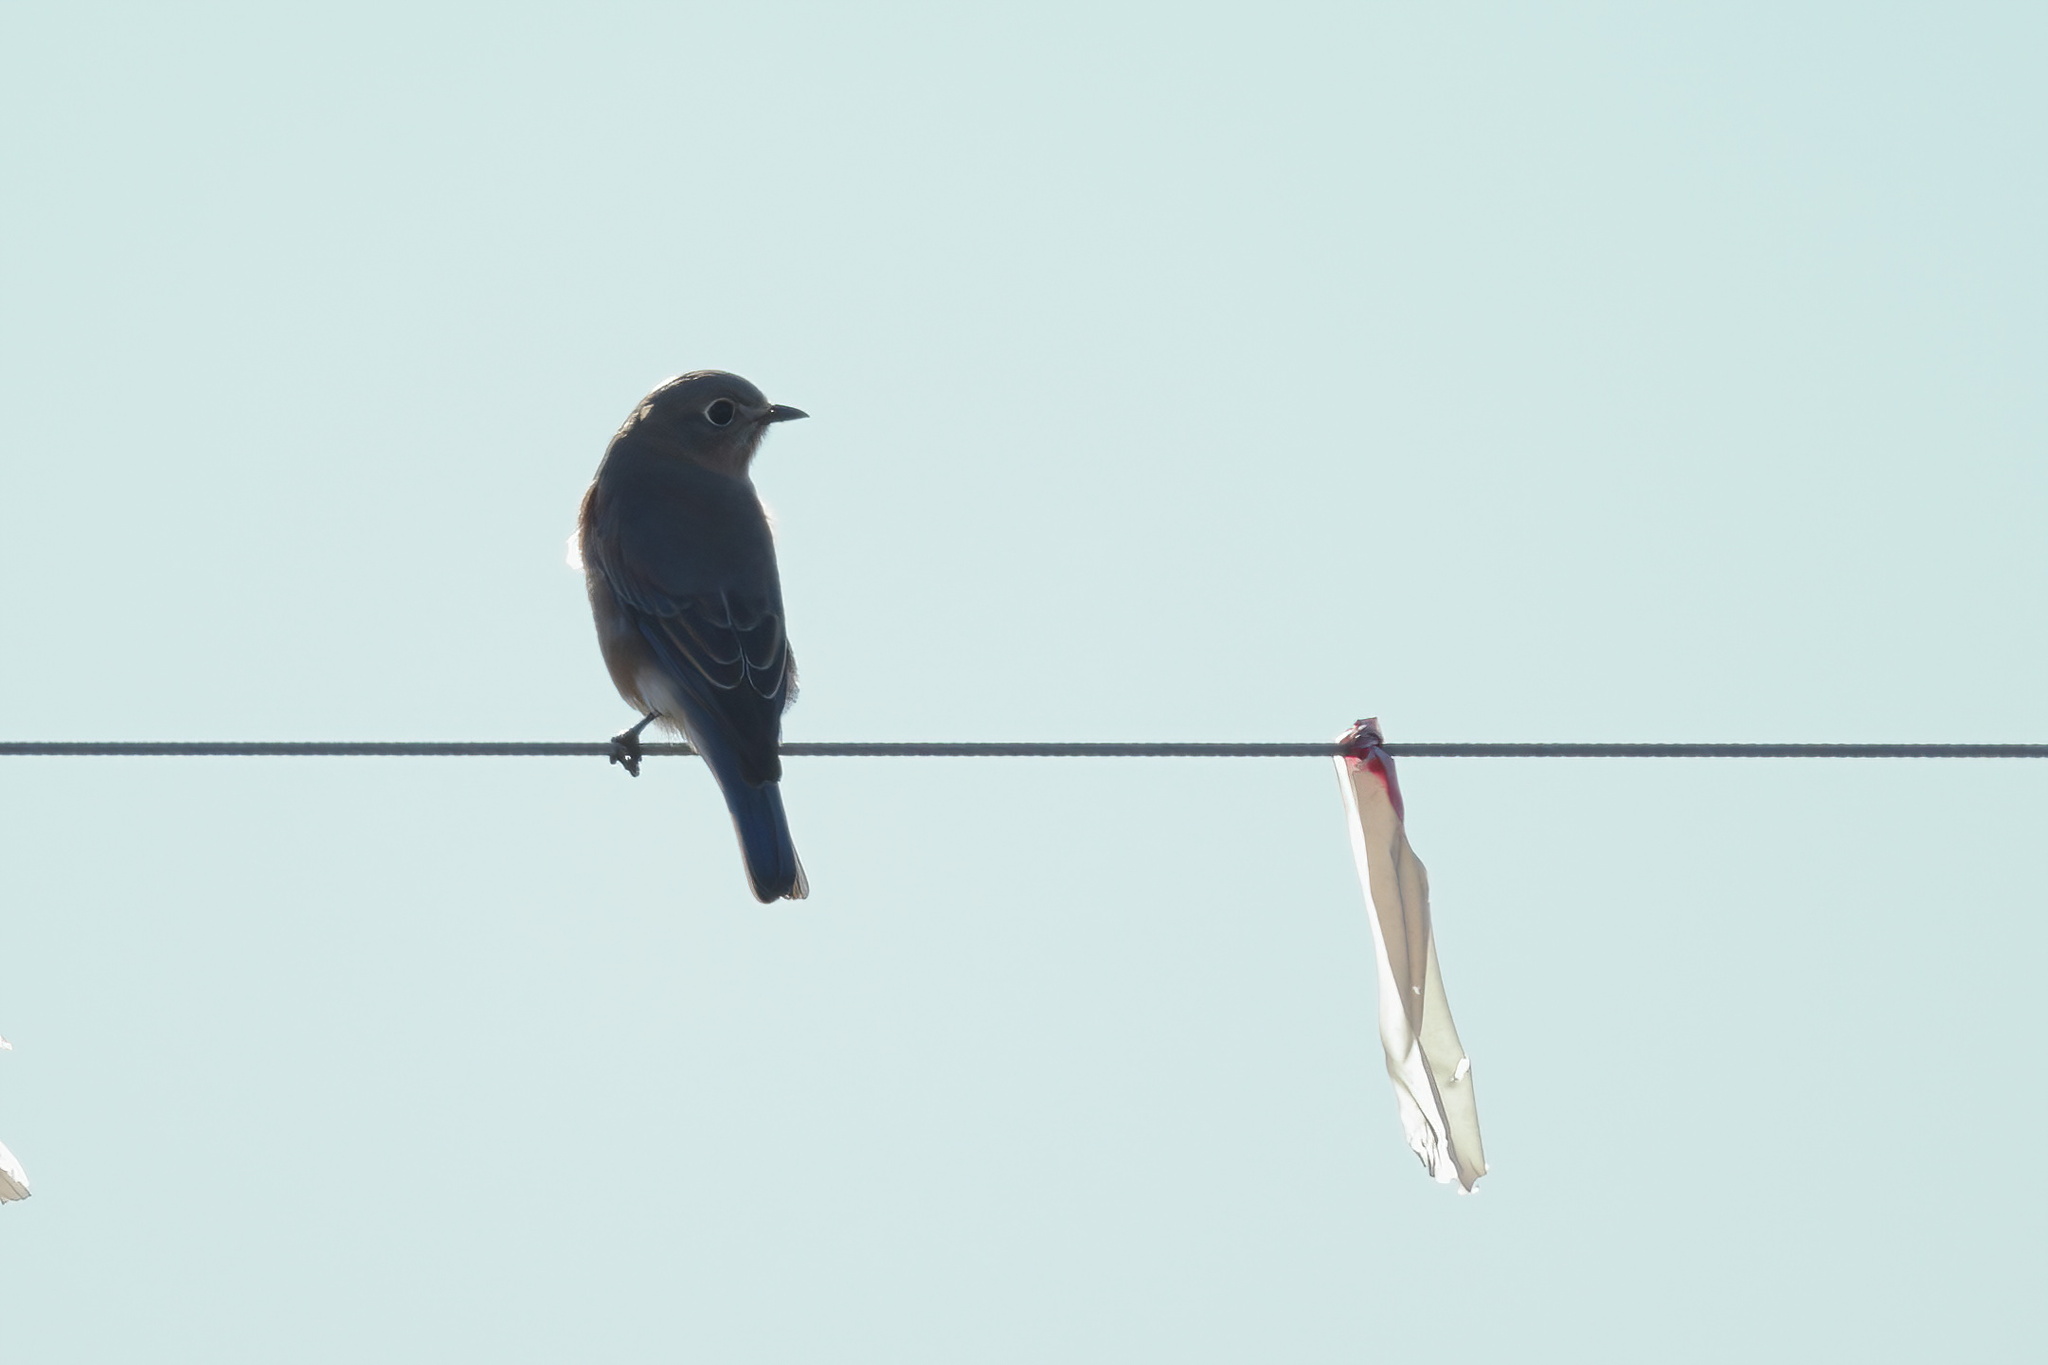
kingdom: Animalia
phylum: Chordata
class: Aves
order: Passeriformes
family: Turdidae
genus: Sialia
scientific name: Sialia sialis
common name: Eastern bluebird
